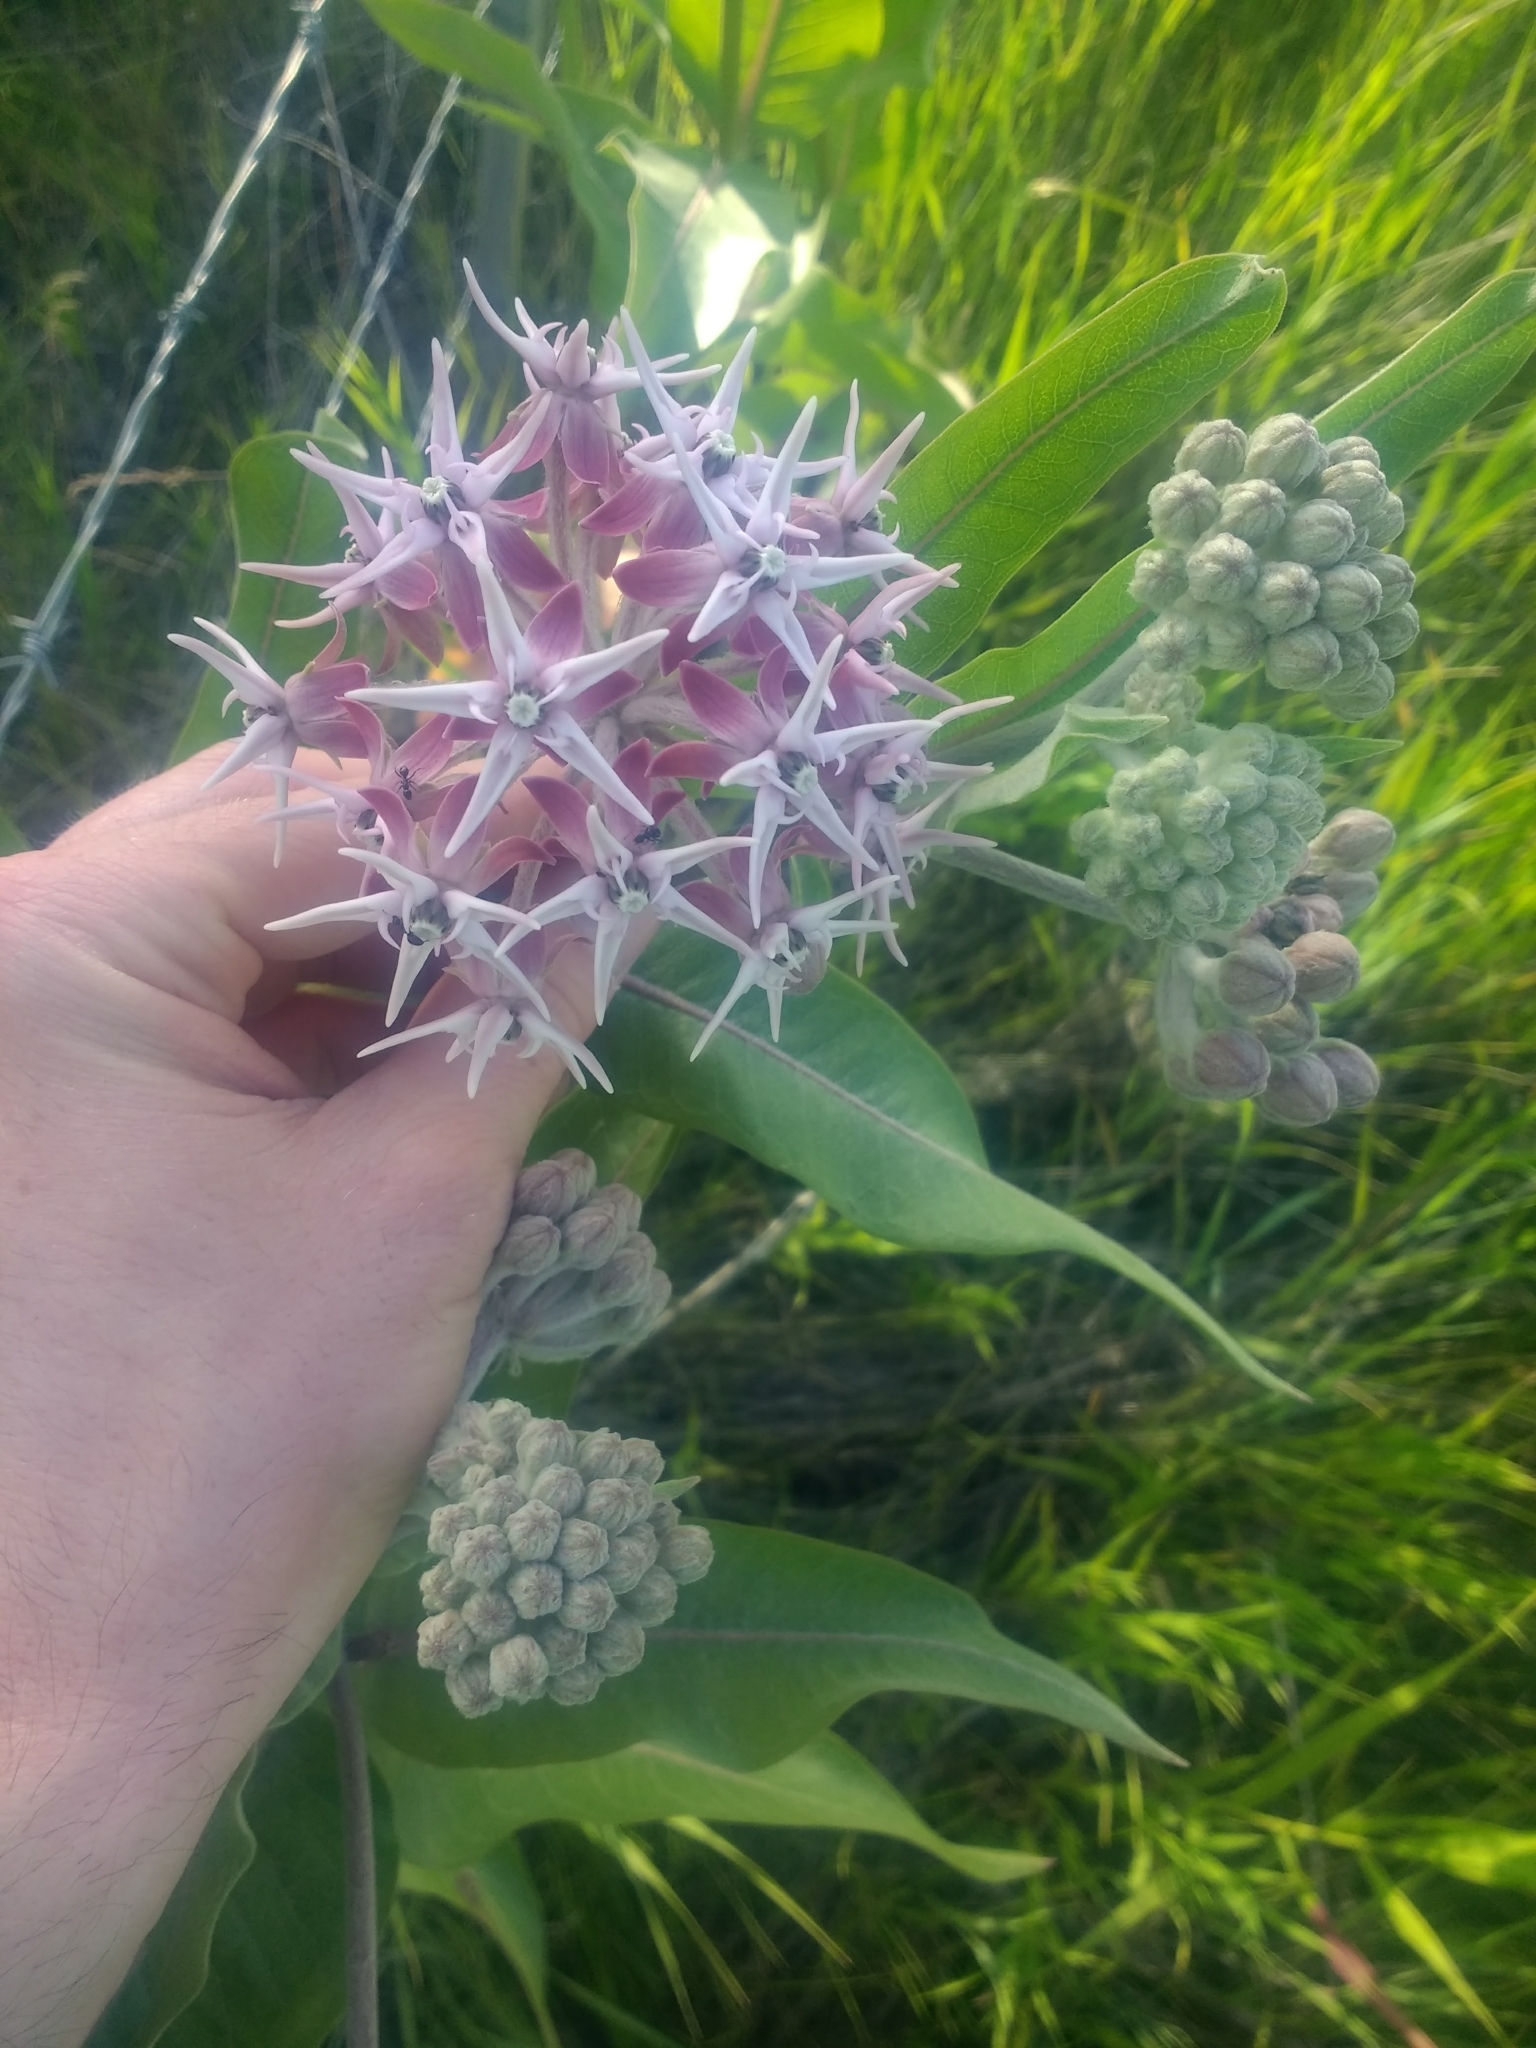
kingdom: Plantae
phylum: Tracheophyta
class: Magnoliopsida
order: Gentianales
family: Apocynaceae
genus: Asclepias
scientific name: Asclepias speciosa
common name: Showy milkweed
